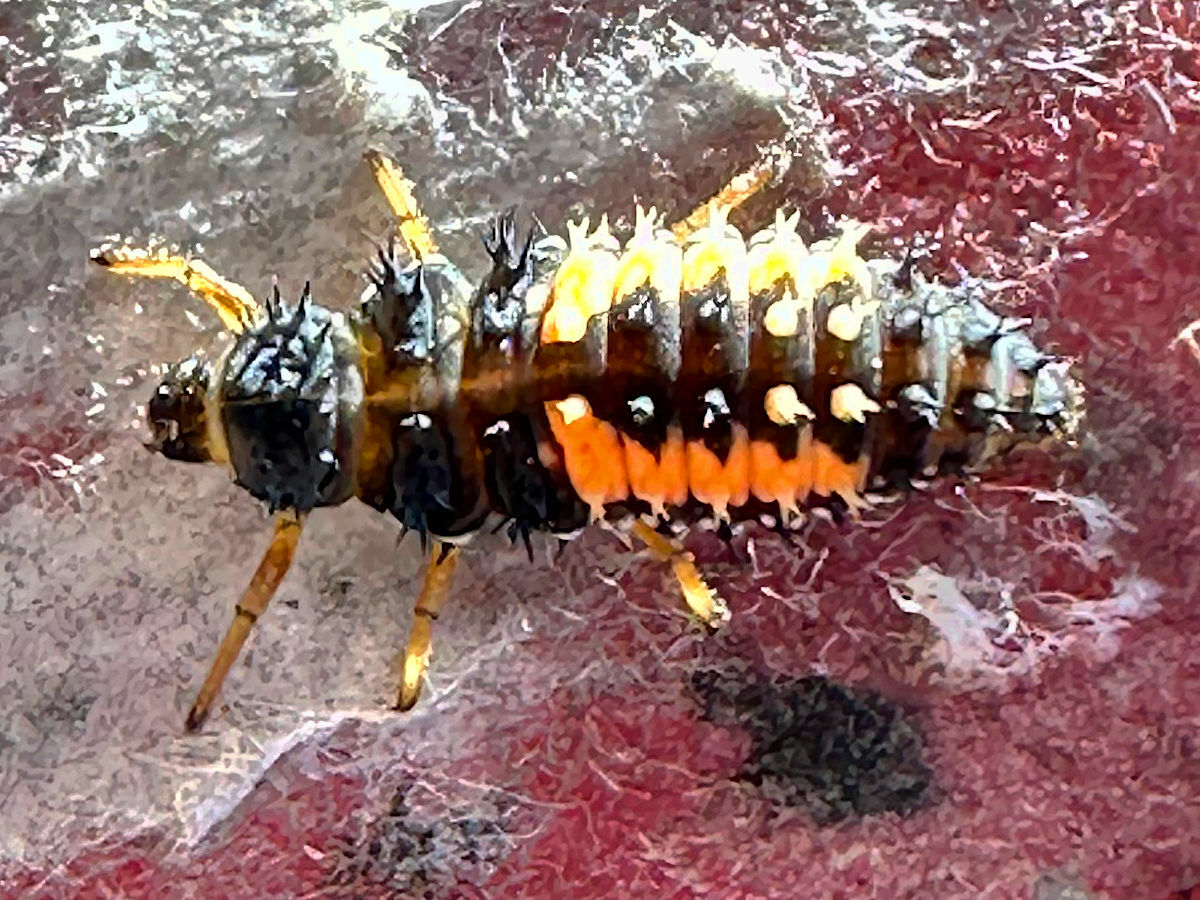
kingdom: Animalia
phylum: Arthropoda
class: Insecta
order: Coleoptera
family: Coccinellidae
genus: Harmonia
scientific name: Harmonia axyridis
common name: Harlequin ladybird
